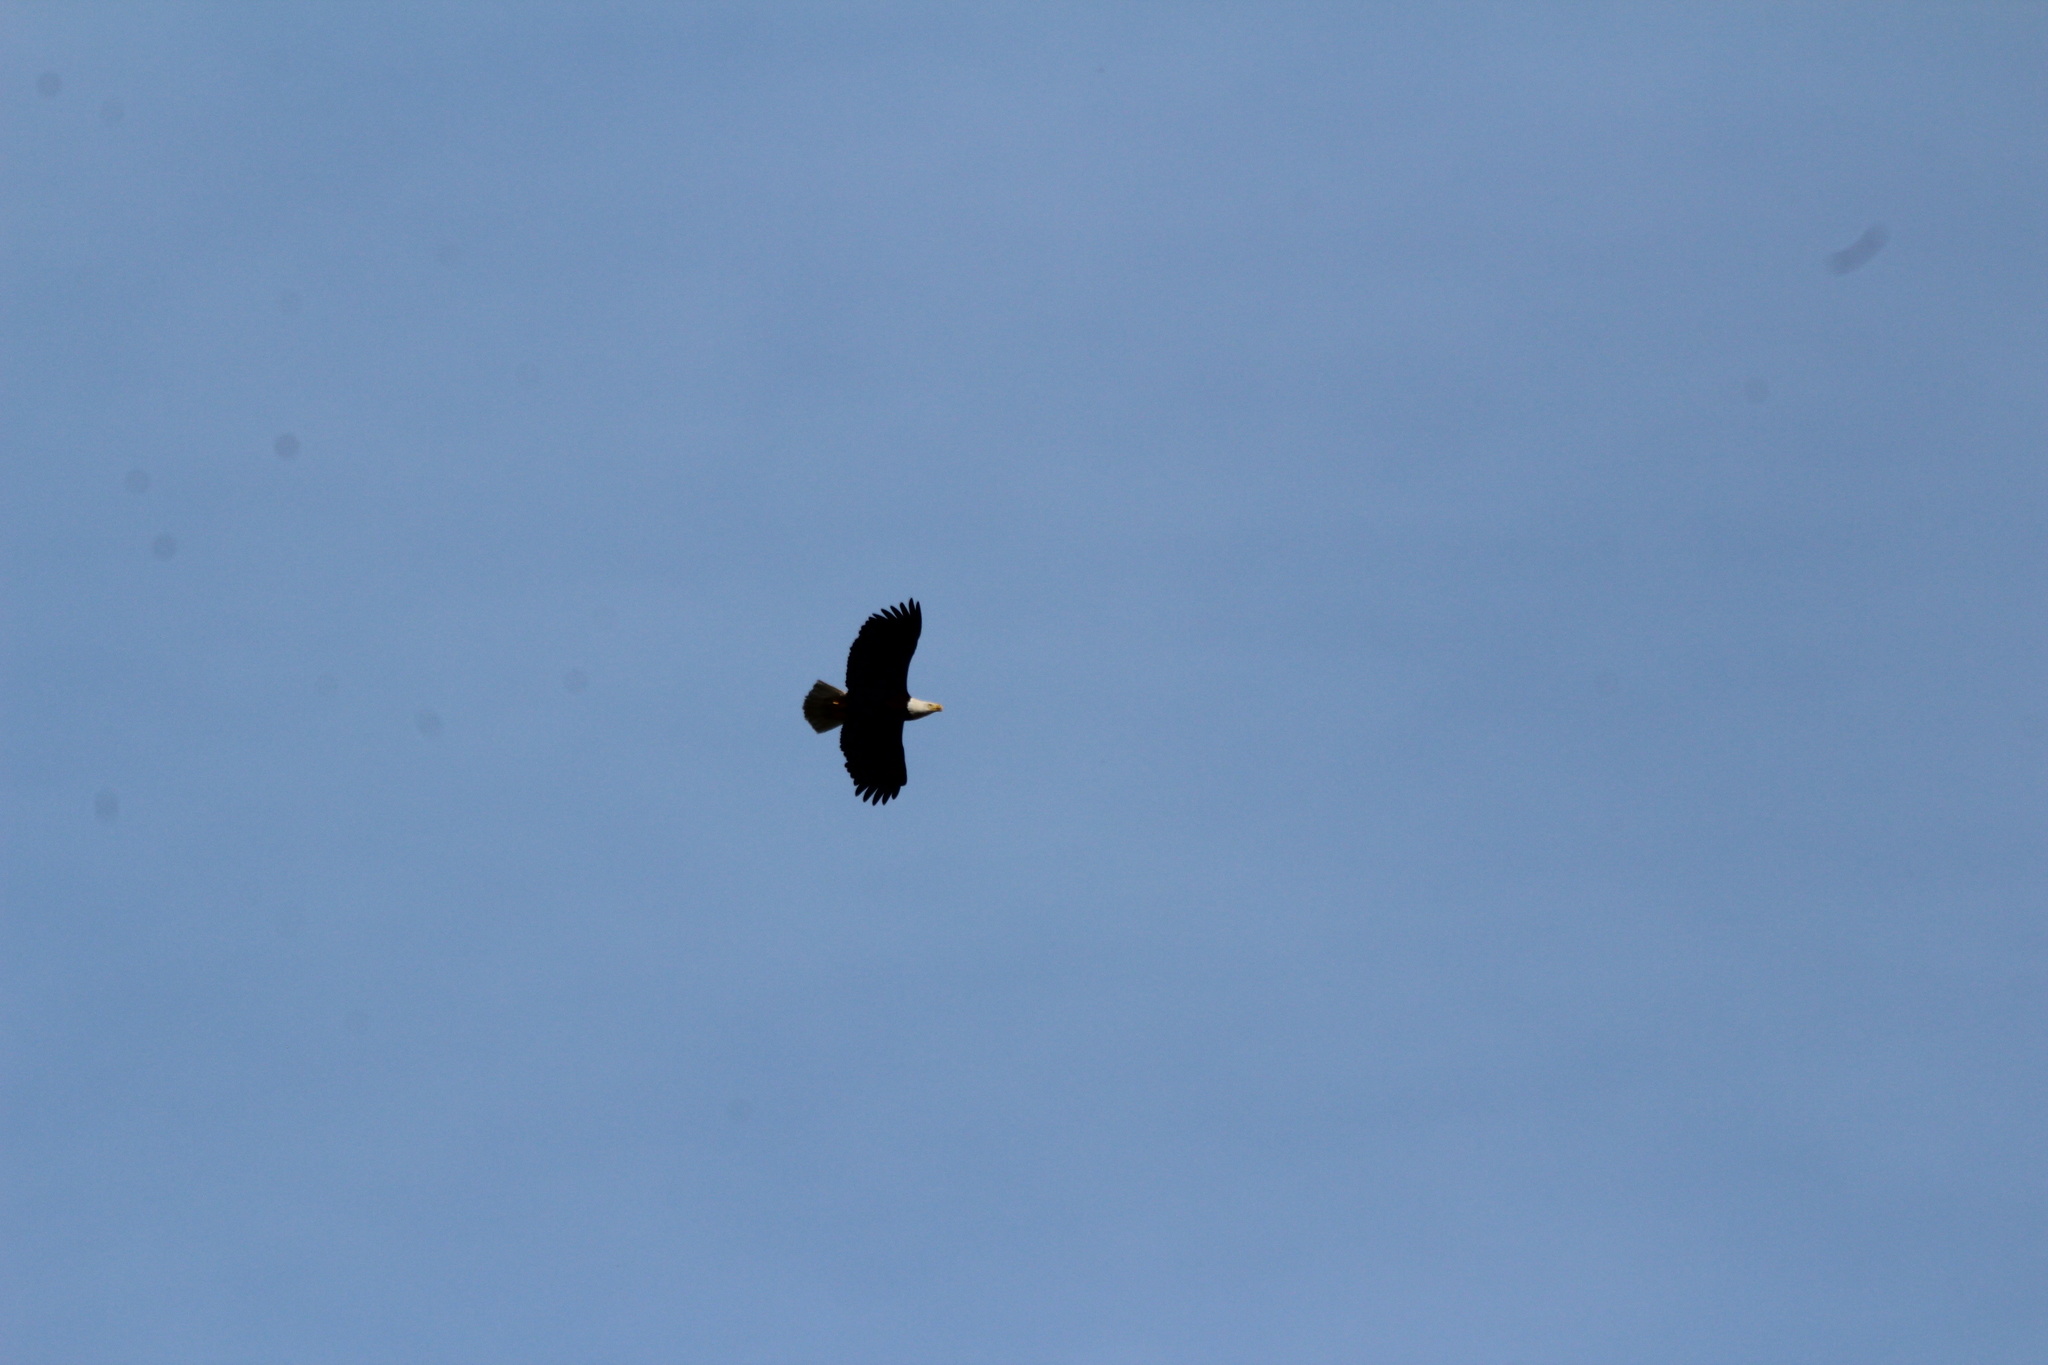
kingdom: Animalia
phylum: Chordata
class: Aves
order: Accipitriformes
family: Accipitridae
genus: Haliaeetus
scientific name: Haliaeetus leucocephalus
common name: Bald eagle
